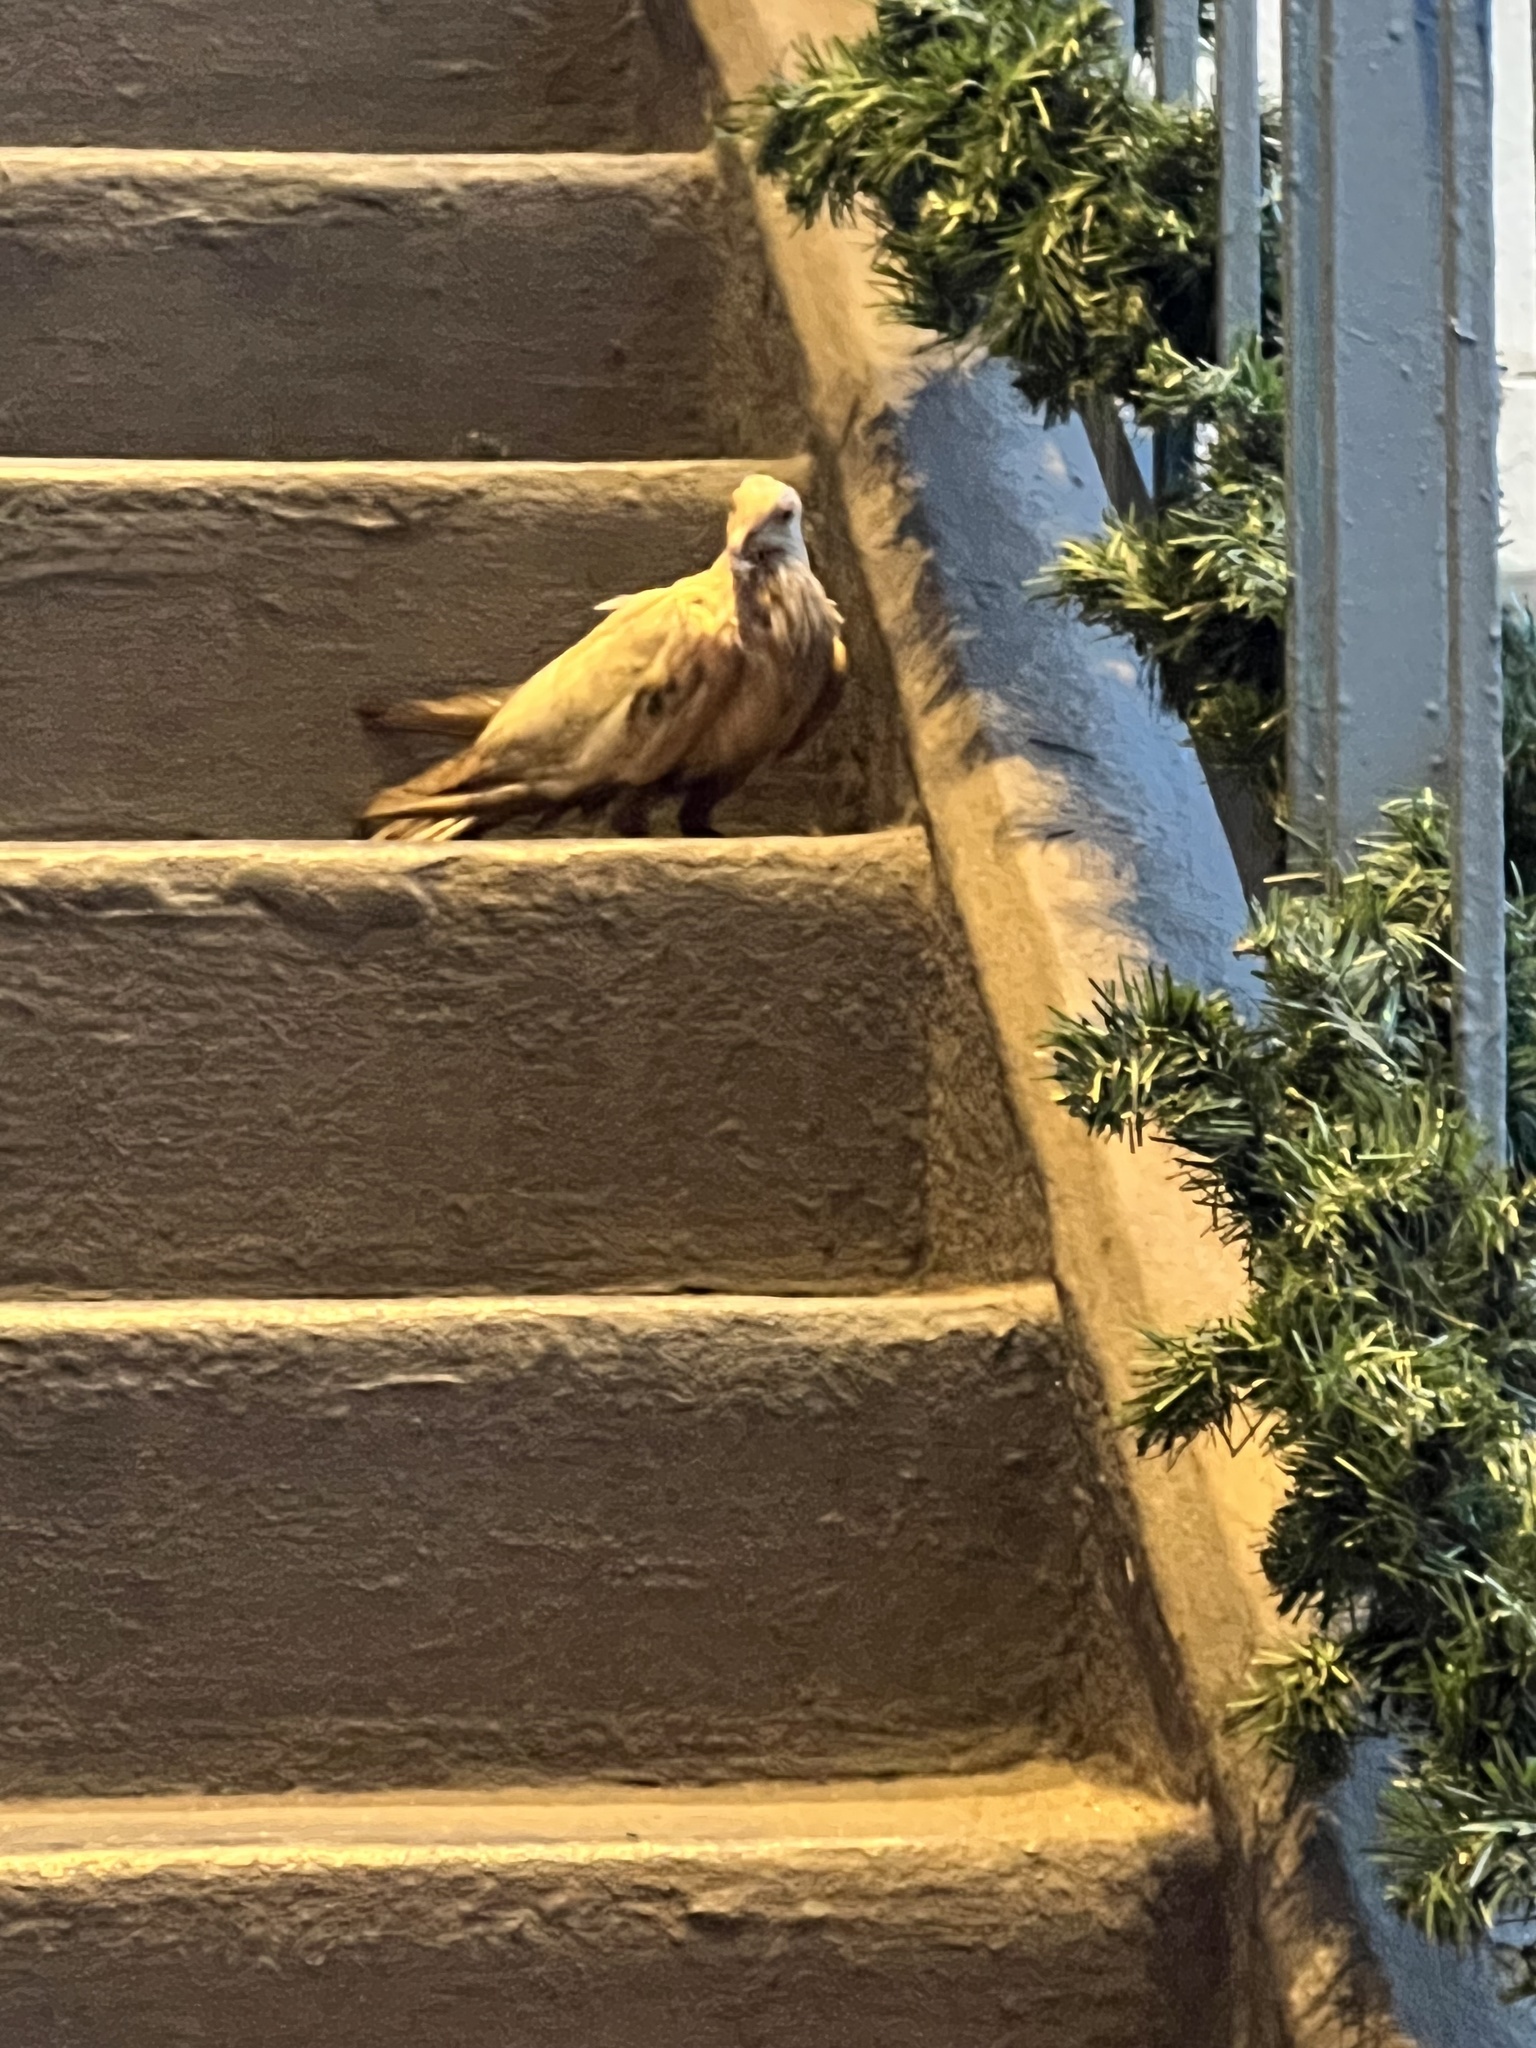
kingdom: Animalia
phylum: Chordata
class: Aves
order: Columbiformes
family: Columbidae
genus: Columba
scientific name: Columba livia
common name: Rock pigeon
